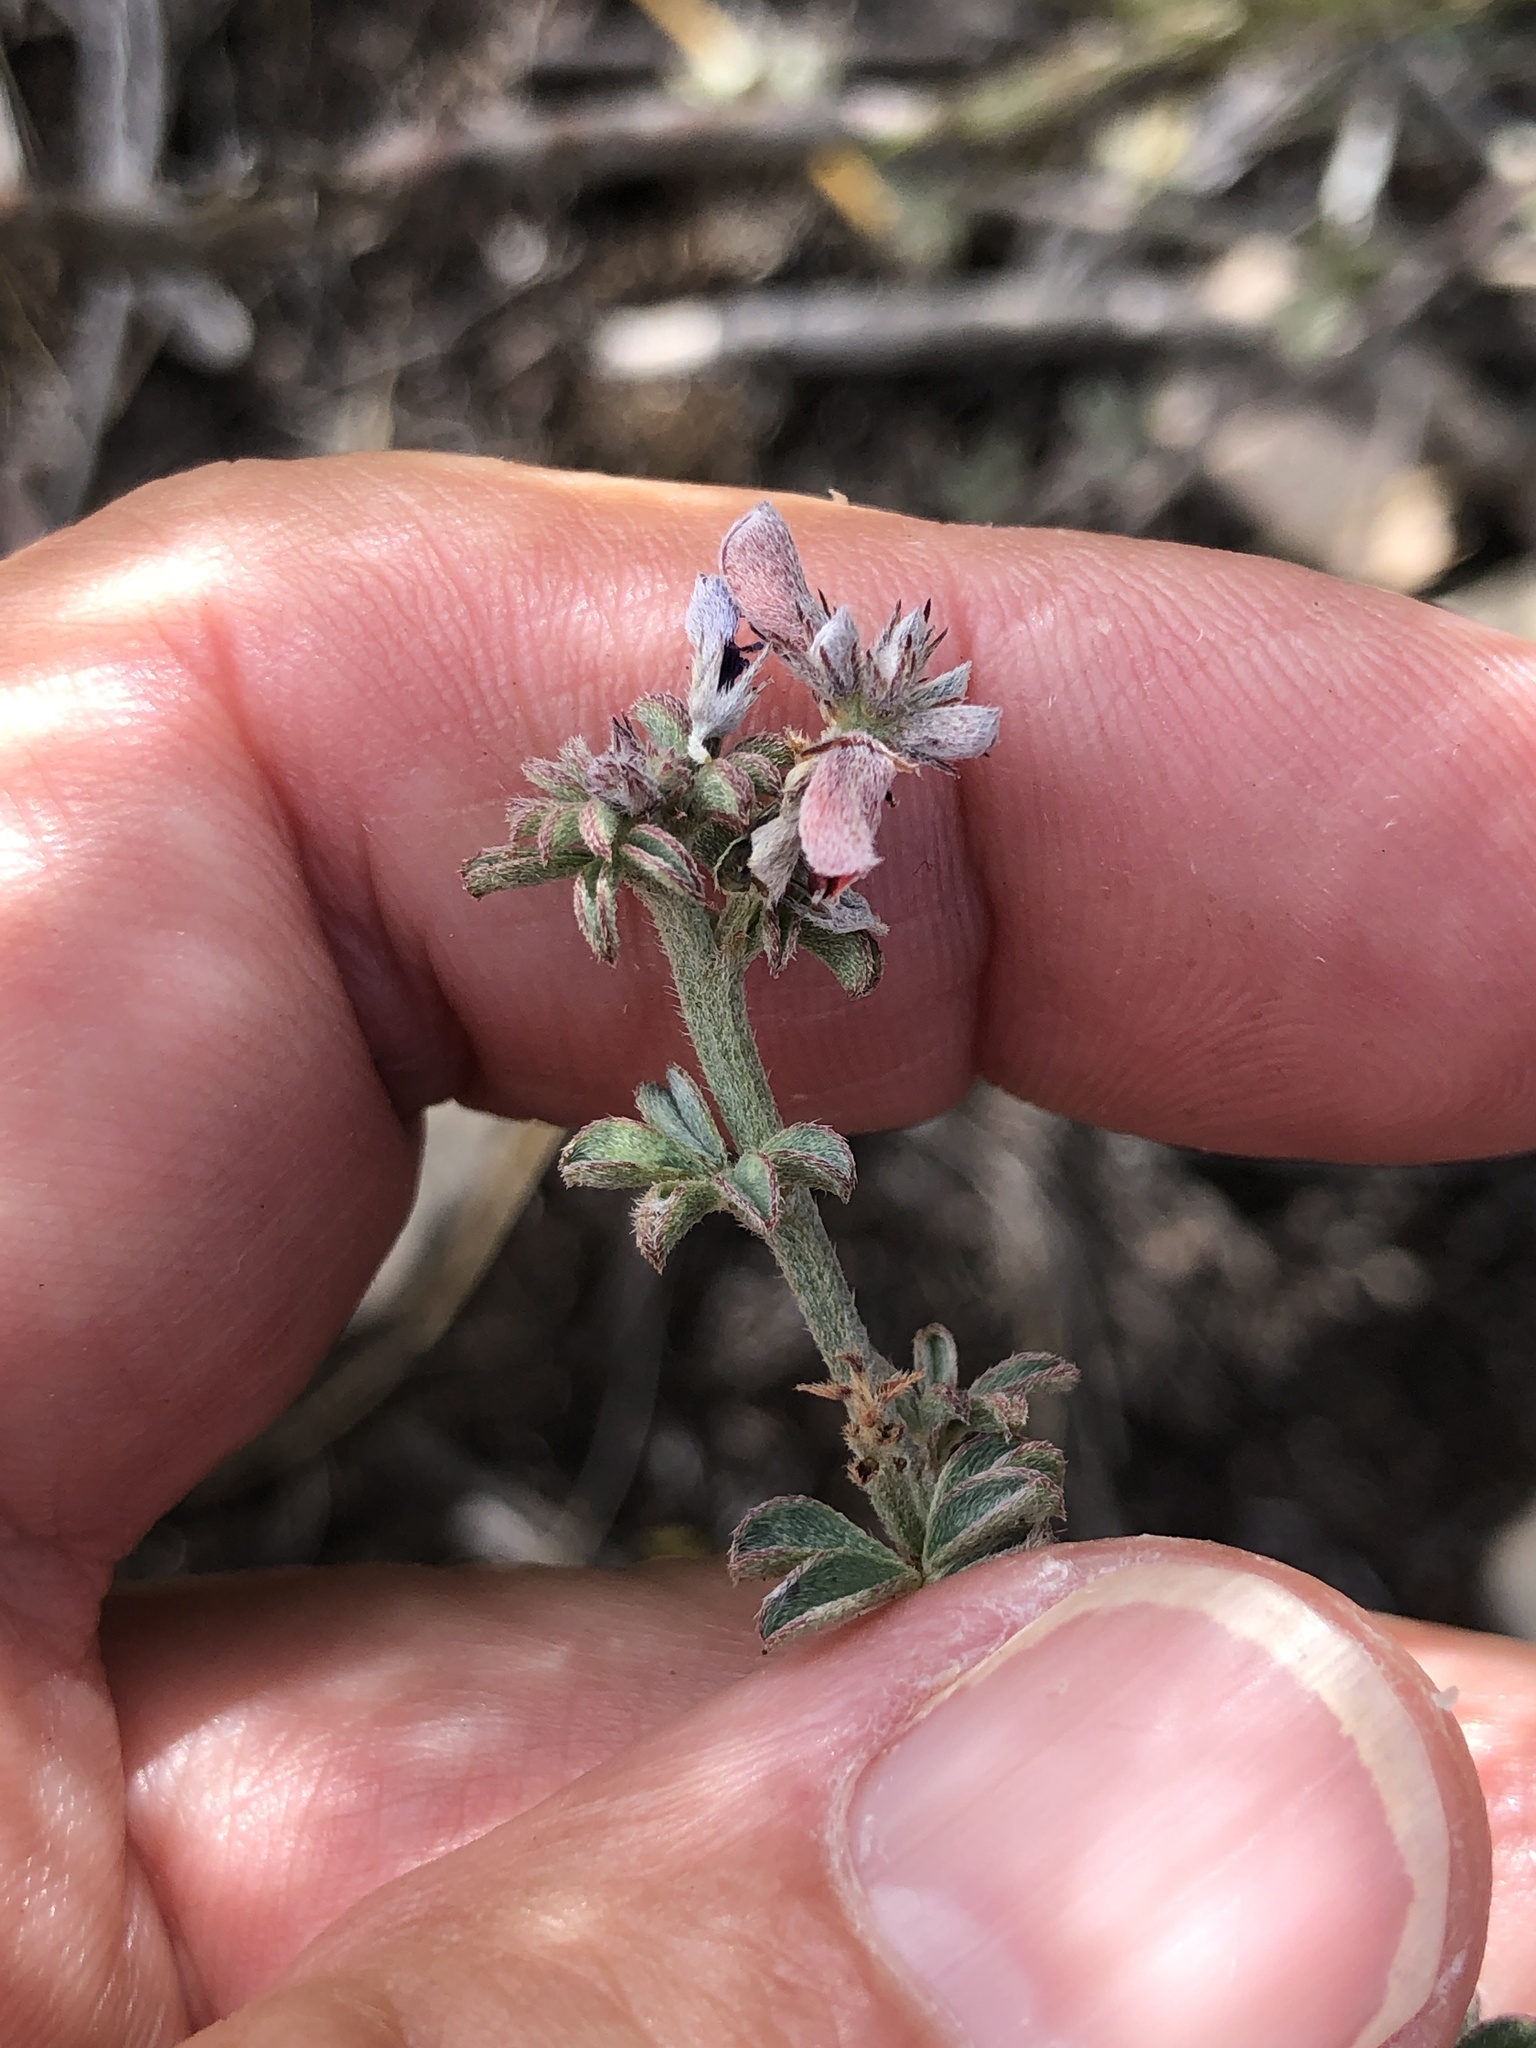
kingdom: Plantae
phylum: Tracheophyta
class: Magnoliopsida
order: Fabales
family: Fabaceae
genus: Indigofera
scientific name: Indigofera priorii
